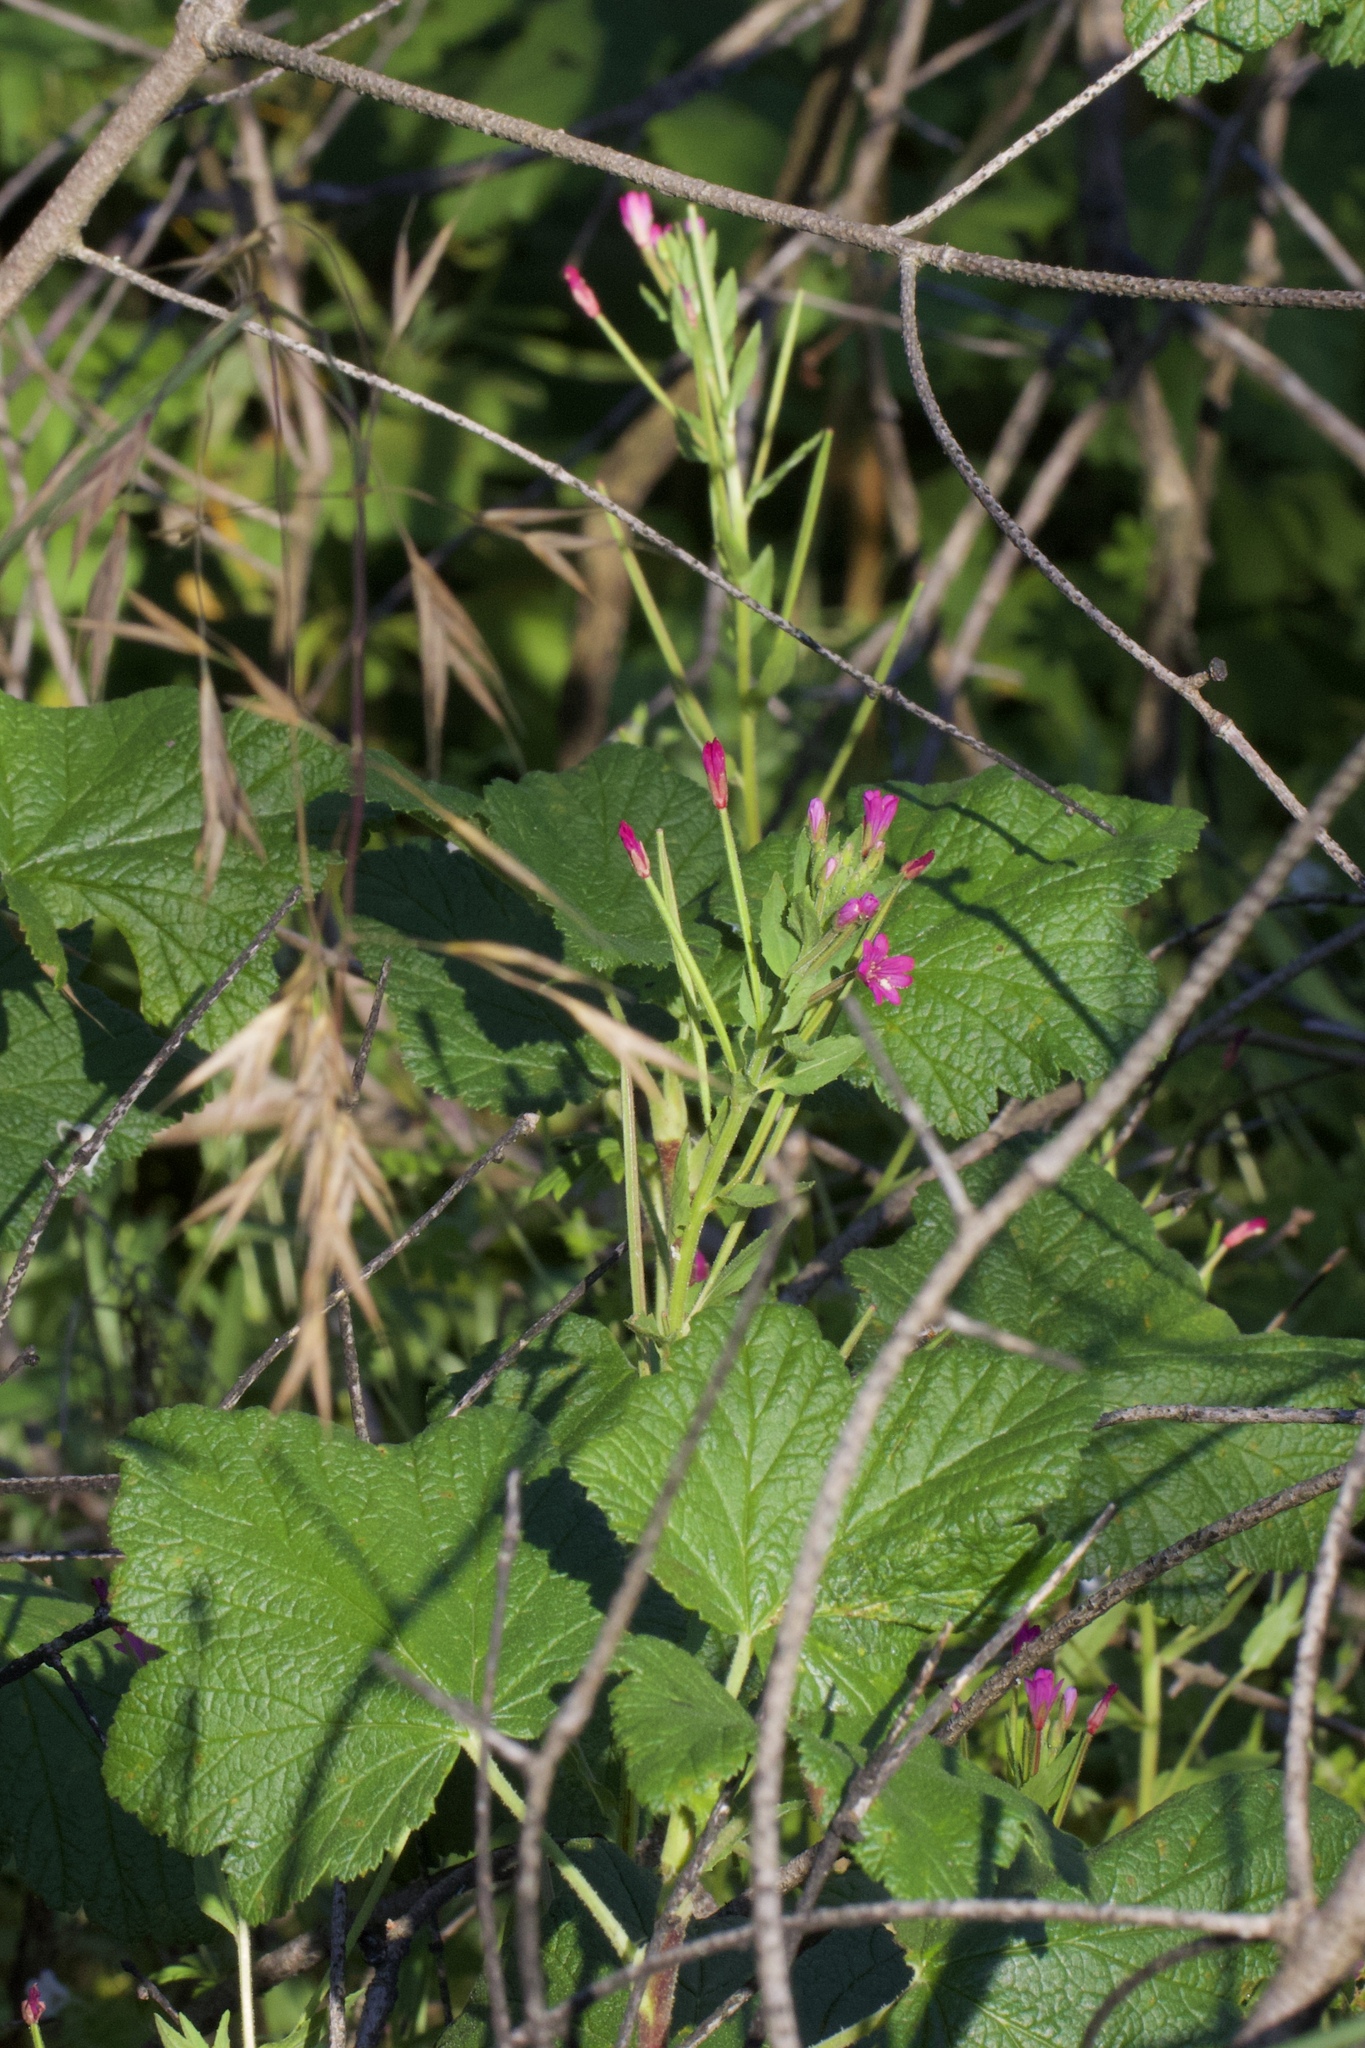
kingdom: Plantae
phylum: Tracheophyta
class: Magnoliopsida
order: Myrtales
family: Onagraceae
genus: Epilobium
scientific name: Epilobium ciliatum
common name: American willowherb
